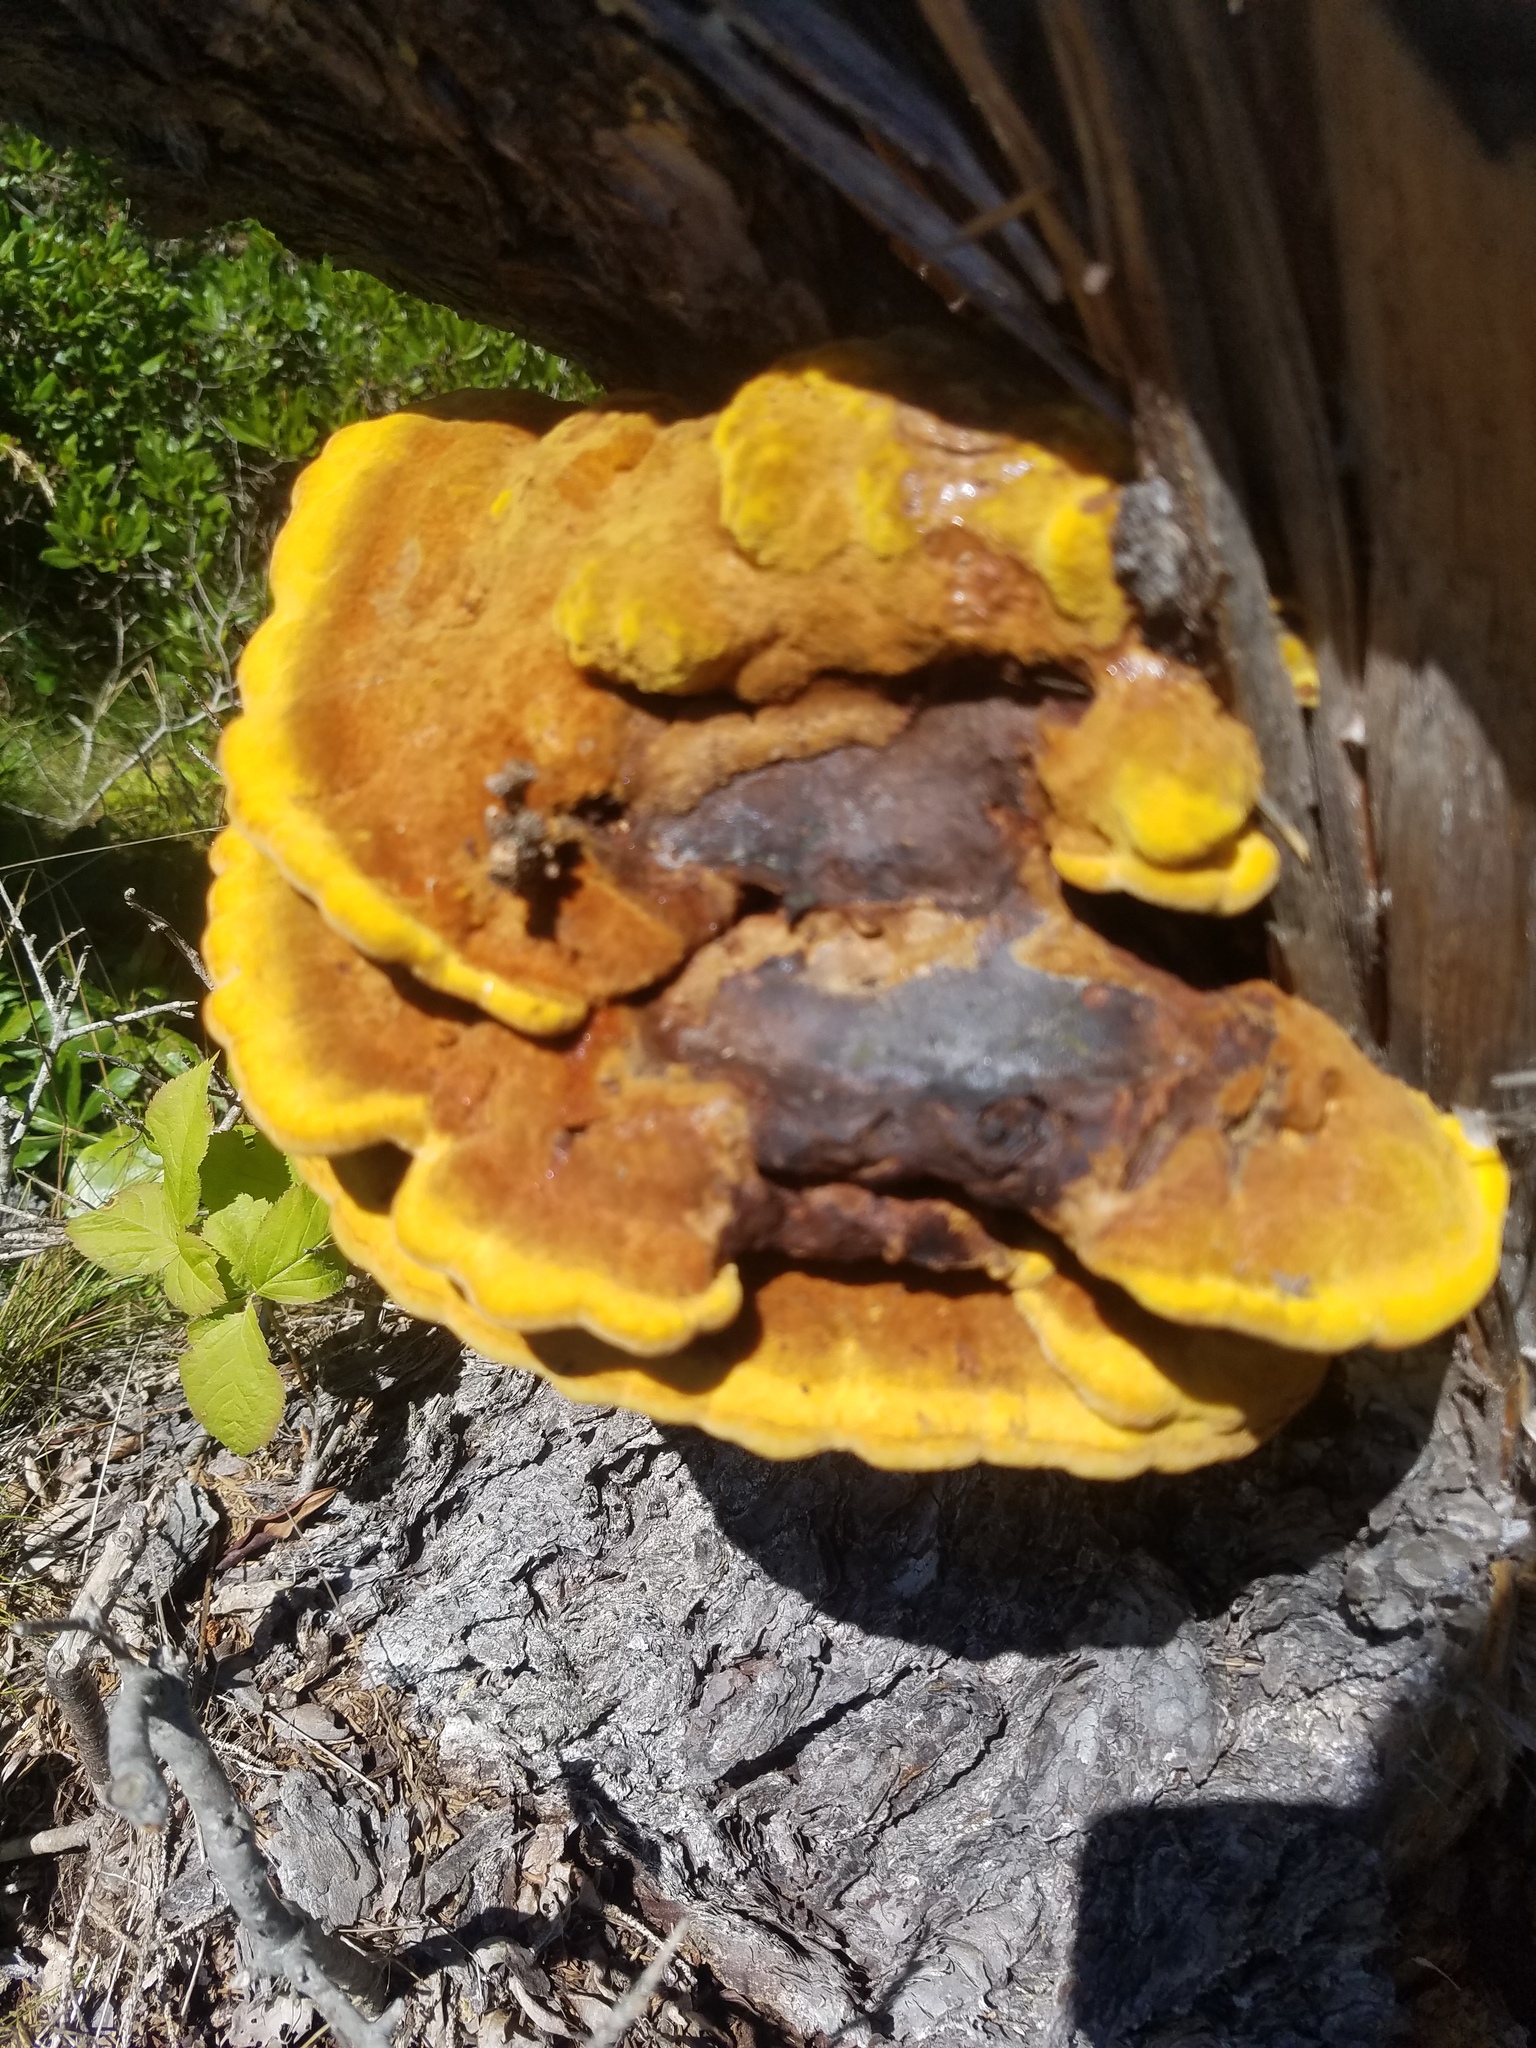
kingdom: Fungi
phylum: Basidiomycota
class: Agaricomycetes
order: Polyporales
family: Laetiporaceae
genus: Phaeolus
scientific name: Phaeolus schweinitzii
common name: Dyer's mazegill
